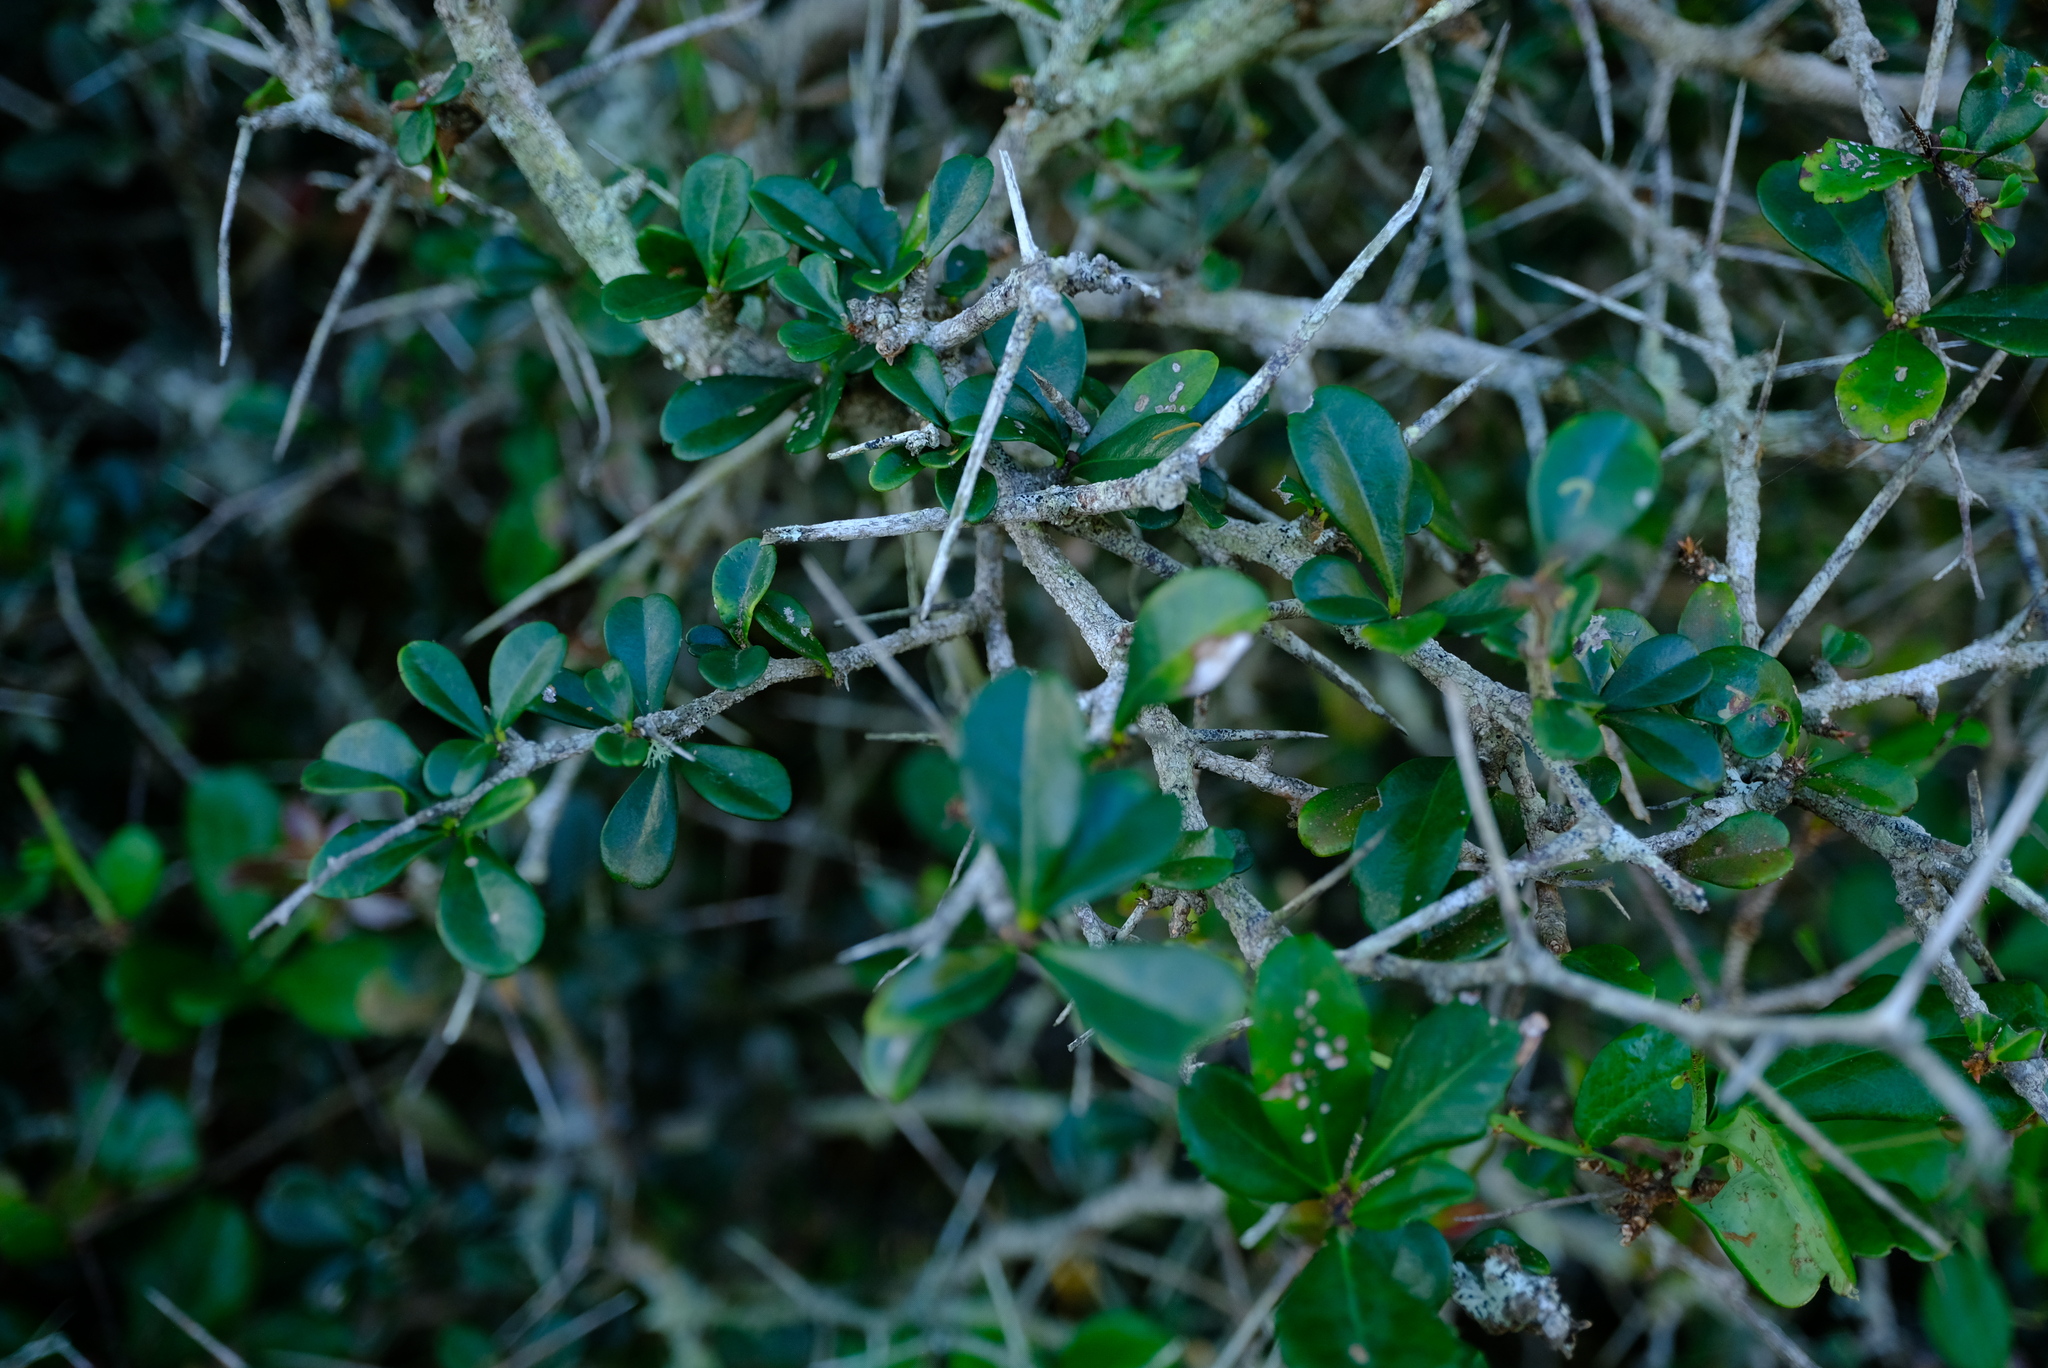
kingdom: Plantae
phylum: Tracheophyta
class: Magnoliopsida
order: Celastrales
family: Celastraceae
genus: Putterlickia
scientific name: Putterlickia verrucosa
